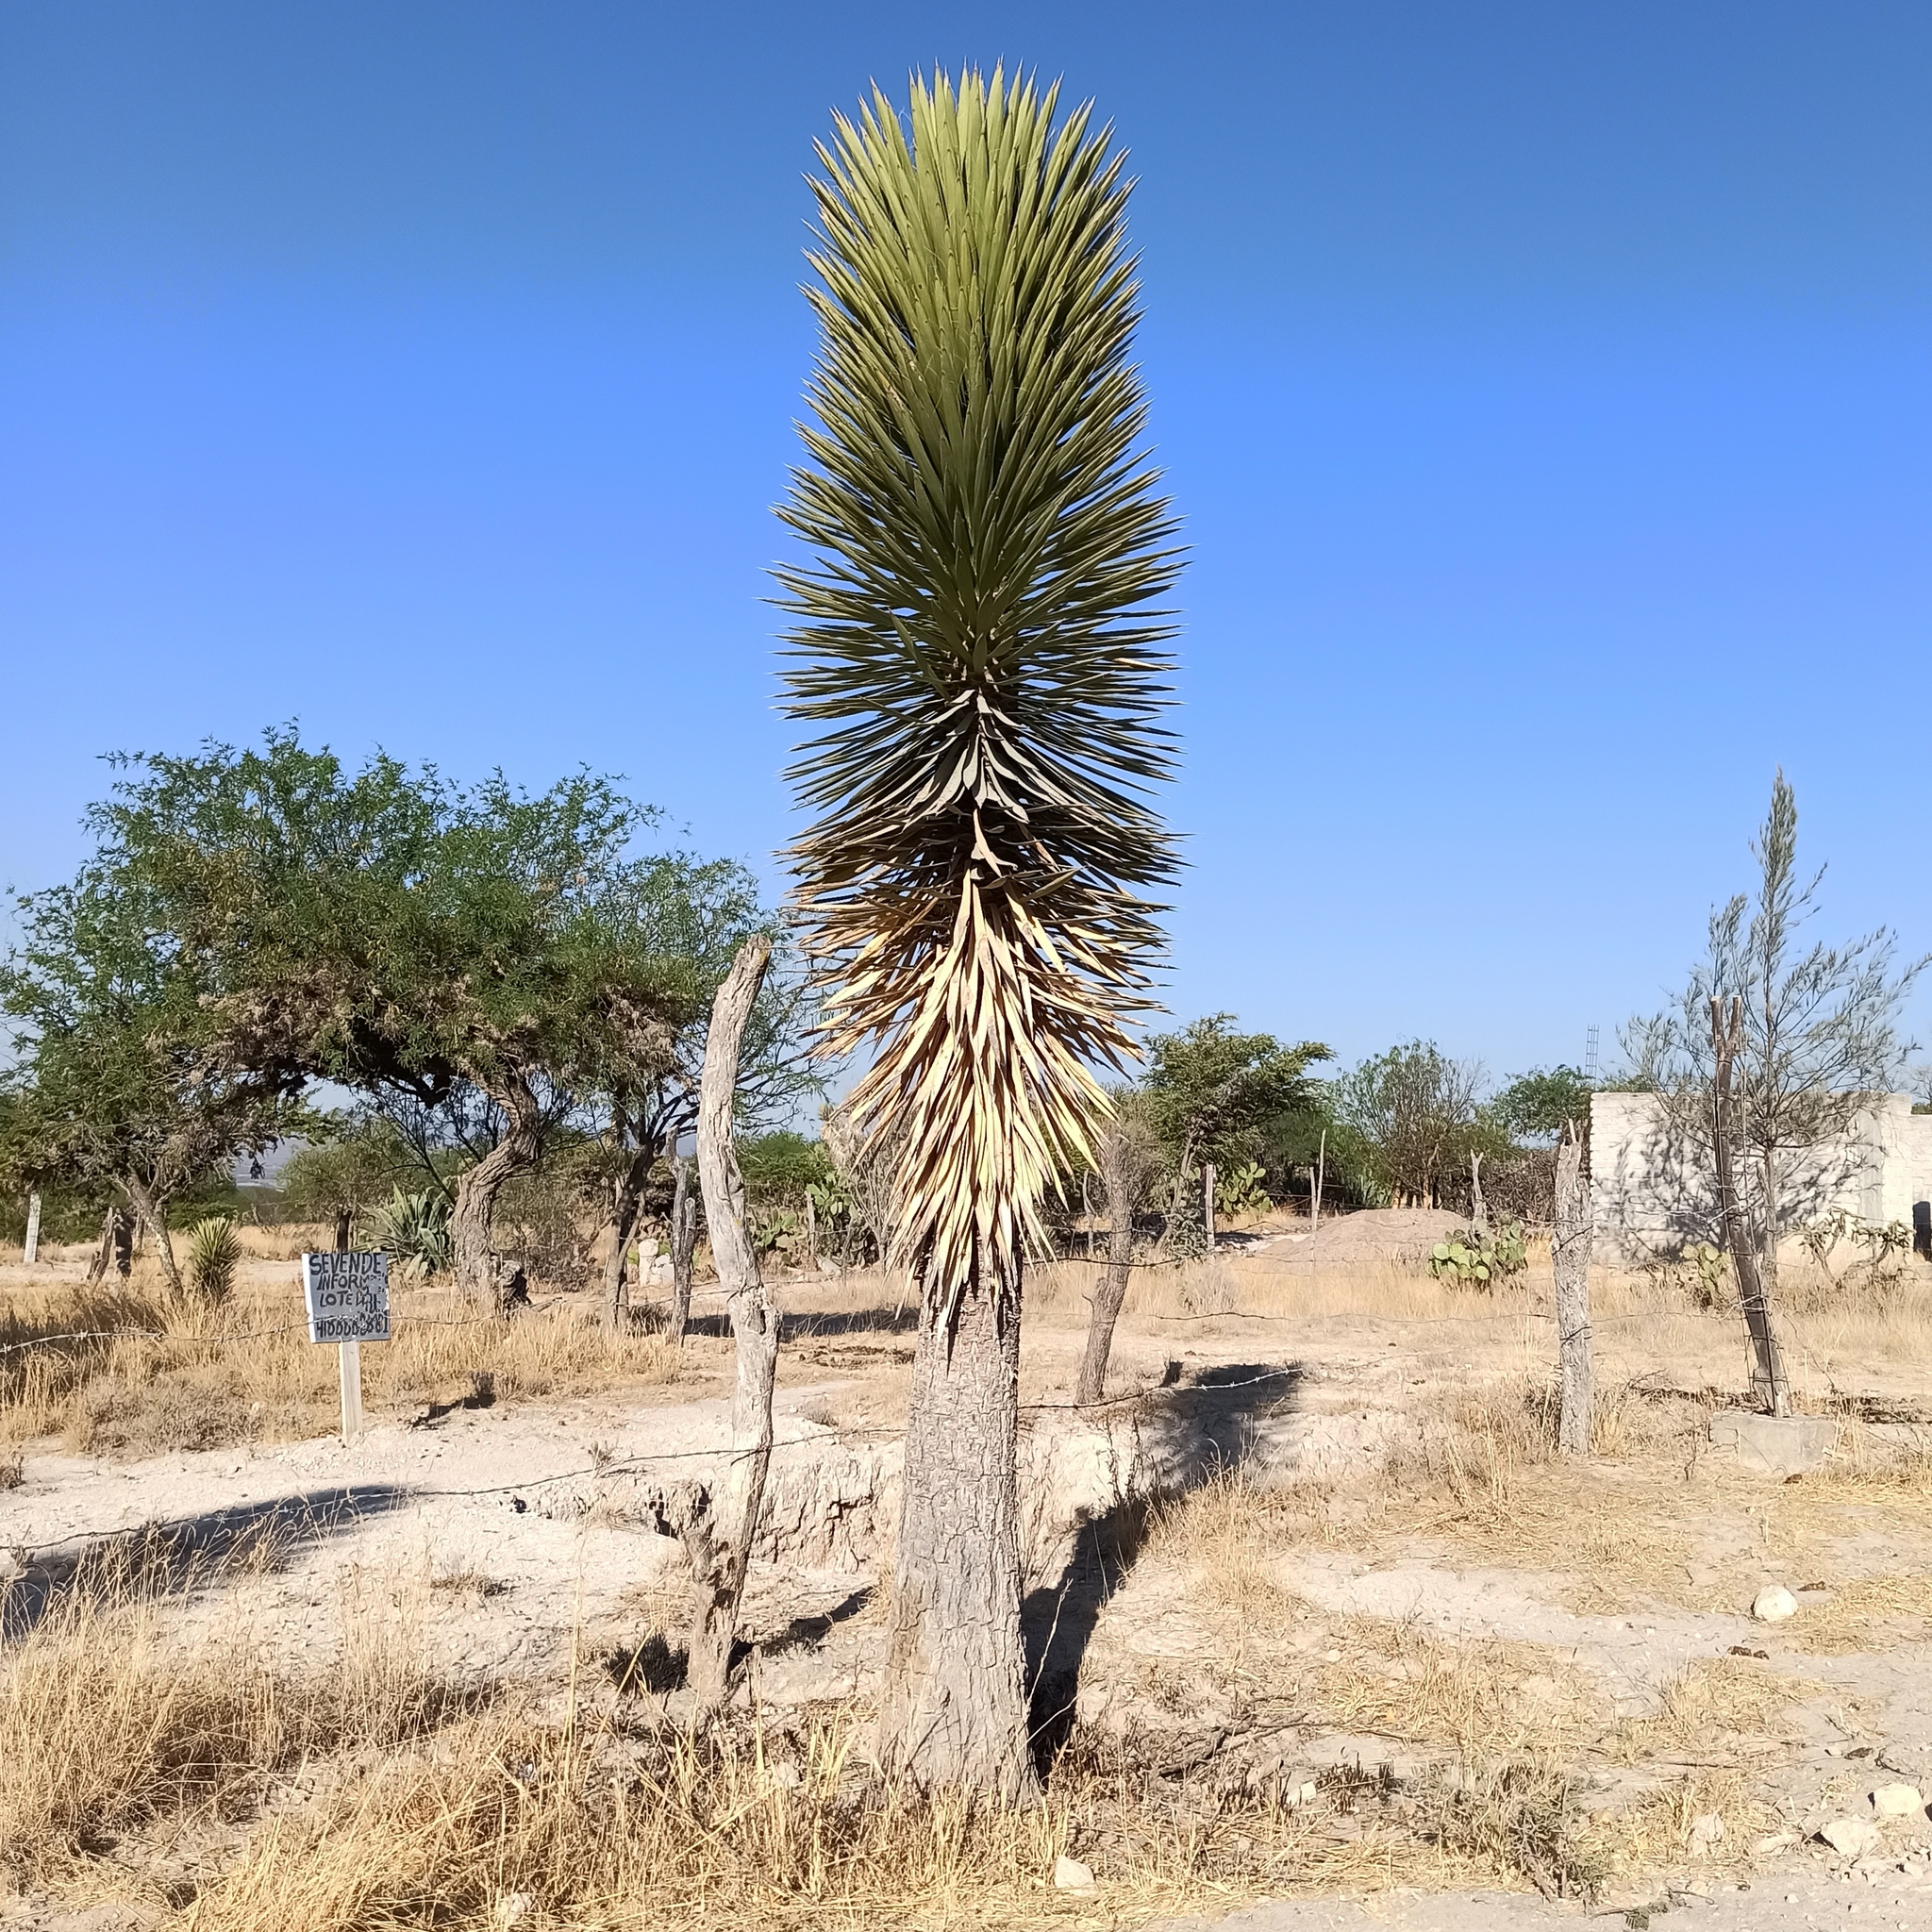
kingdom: Plantae
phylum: Tracheophyta
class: Liliopsida
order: Asparagales
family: Asparagaceae
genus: Yucca
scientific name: Yucca filifera
